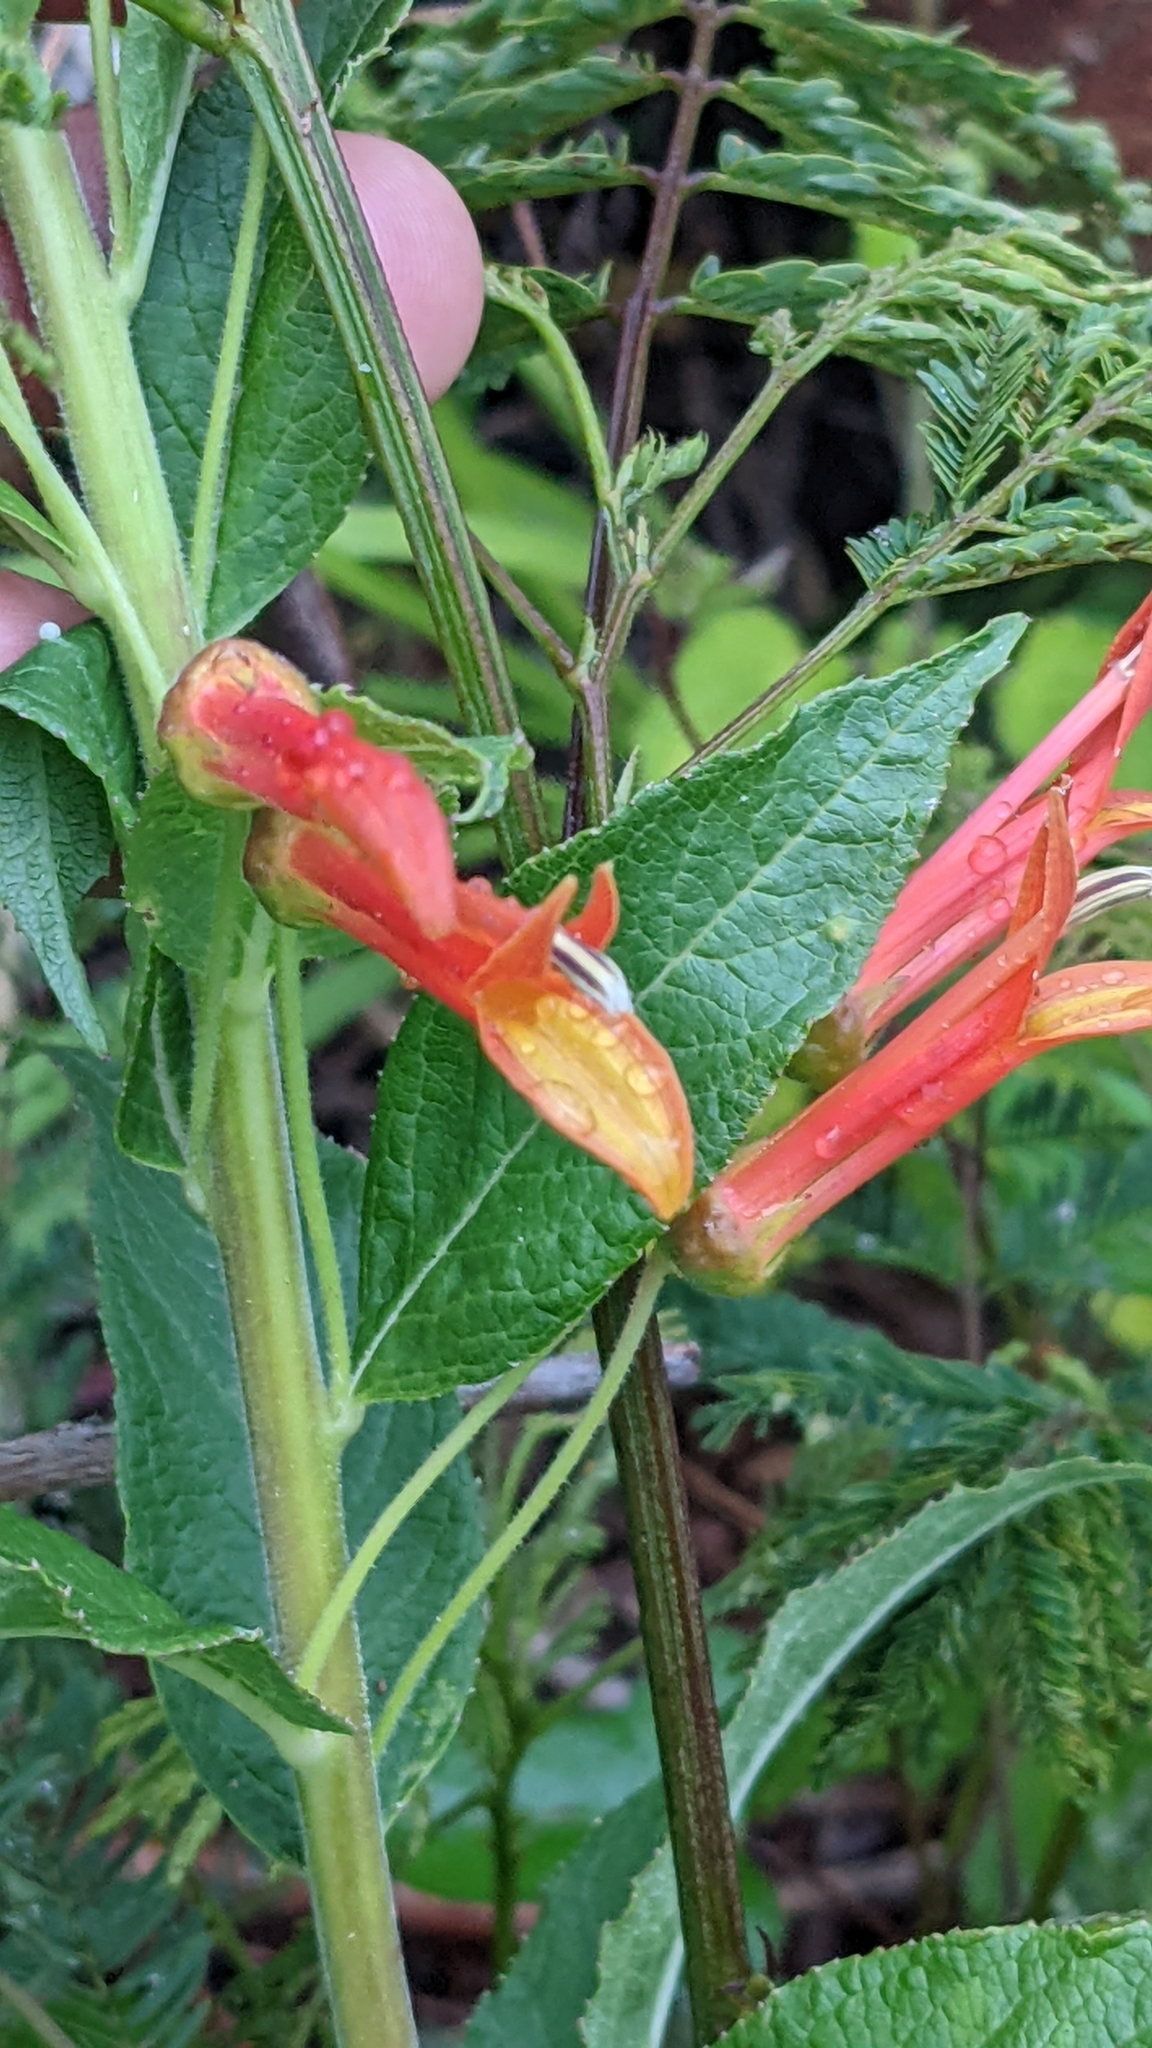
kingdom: Plantae
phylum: Tracheophyta
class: Magnoliopsida
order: Asterales
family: Campanulaceae
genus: Lobelia
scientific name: Lobelia laxiflora
